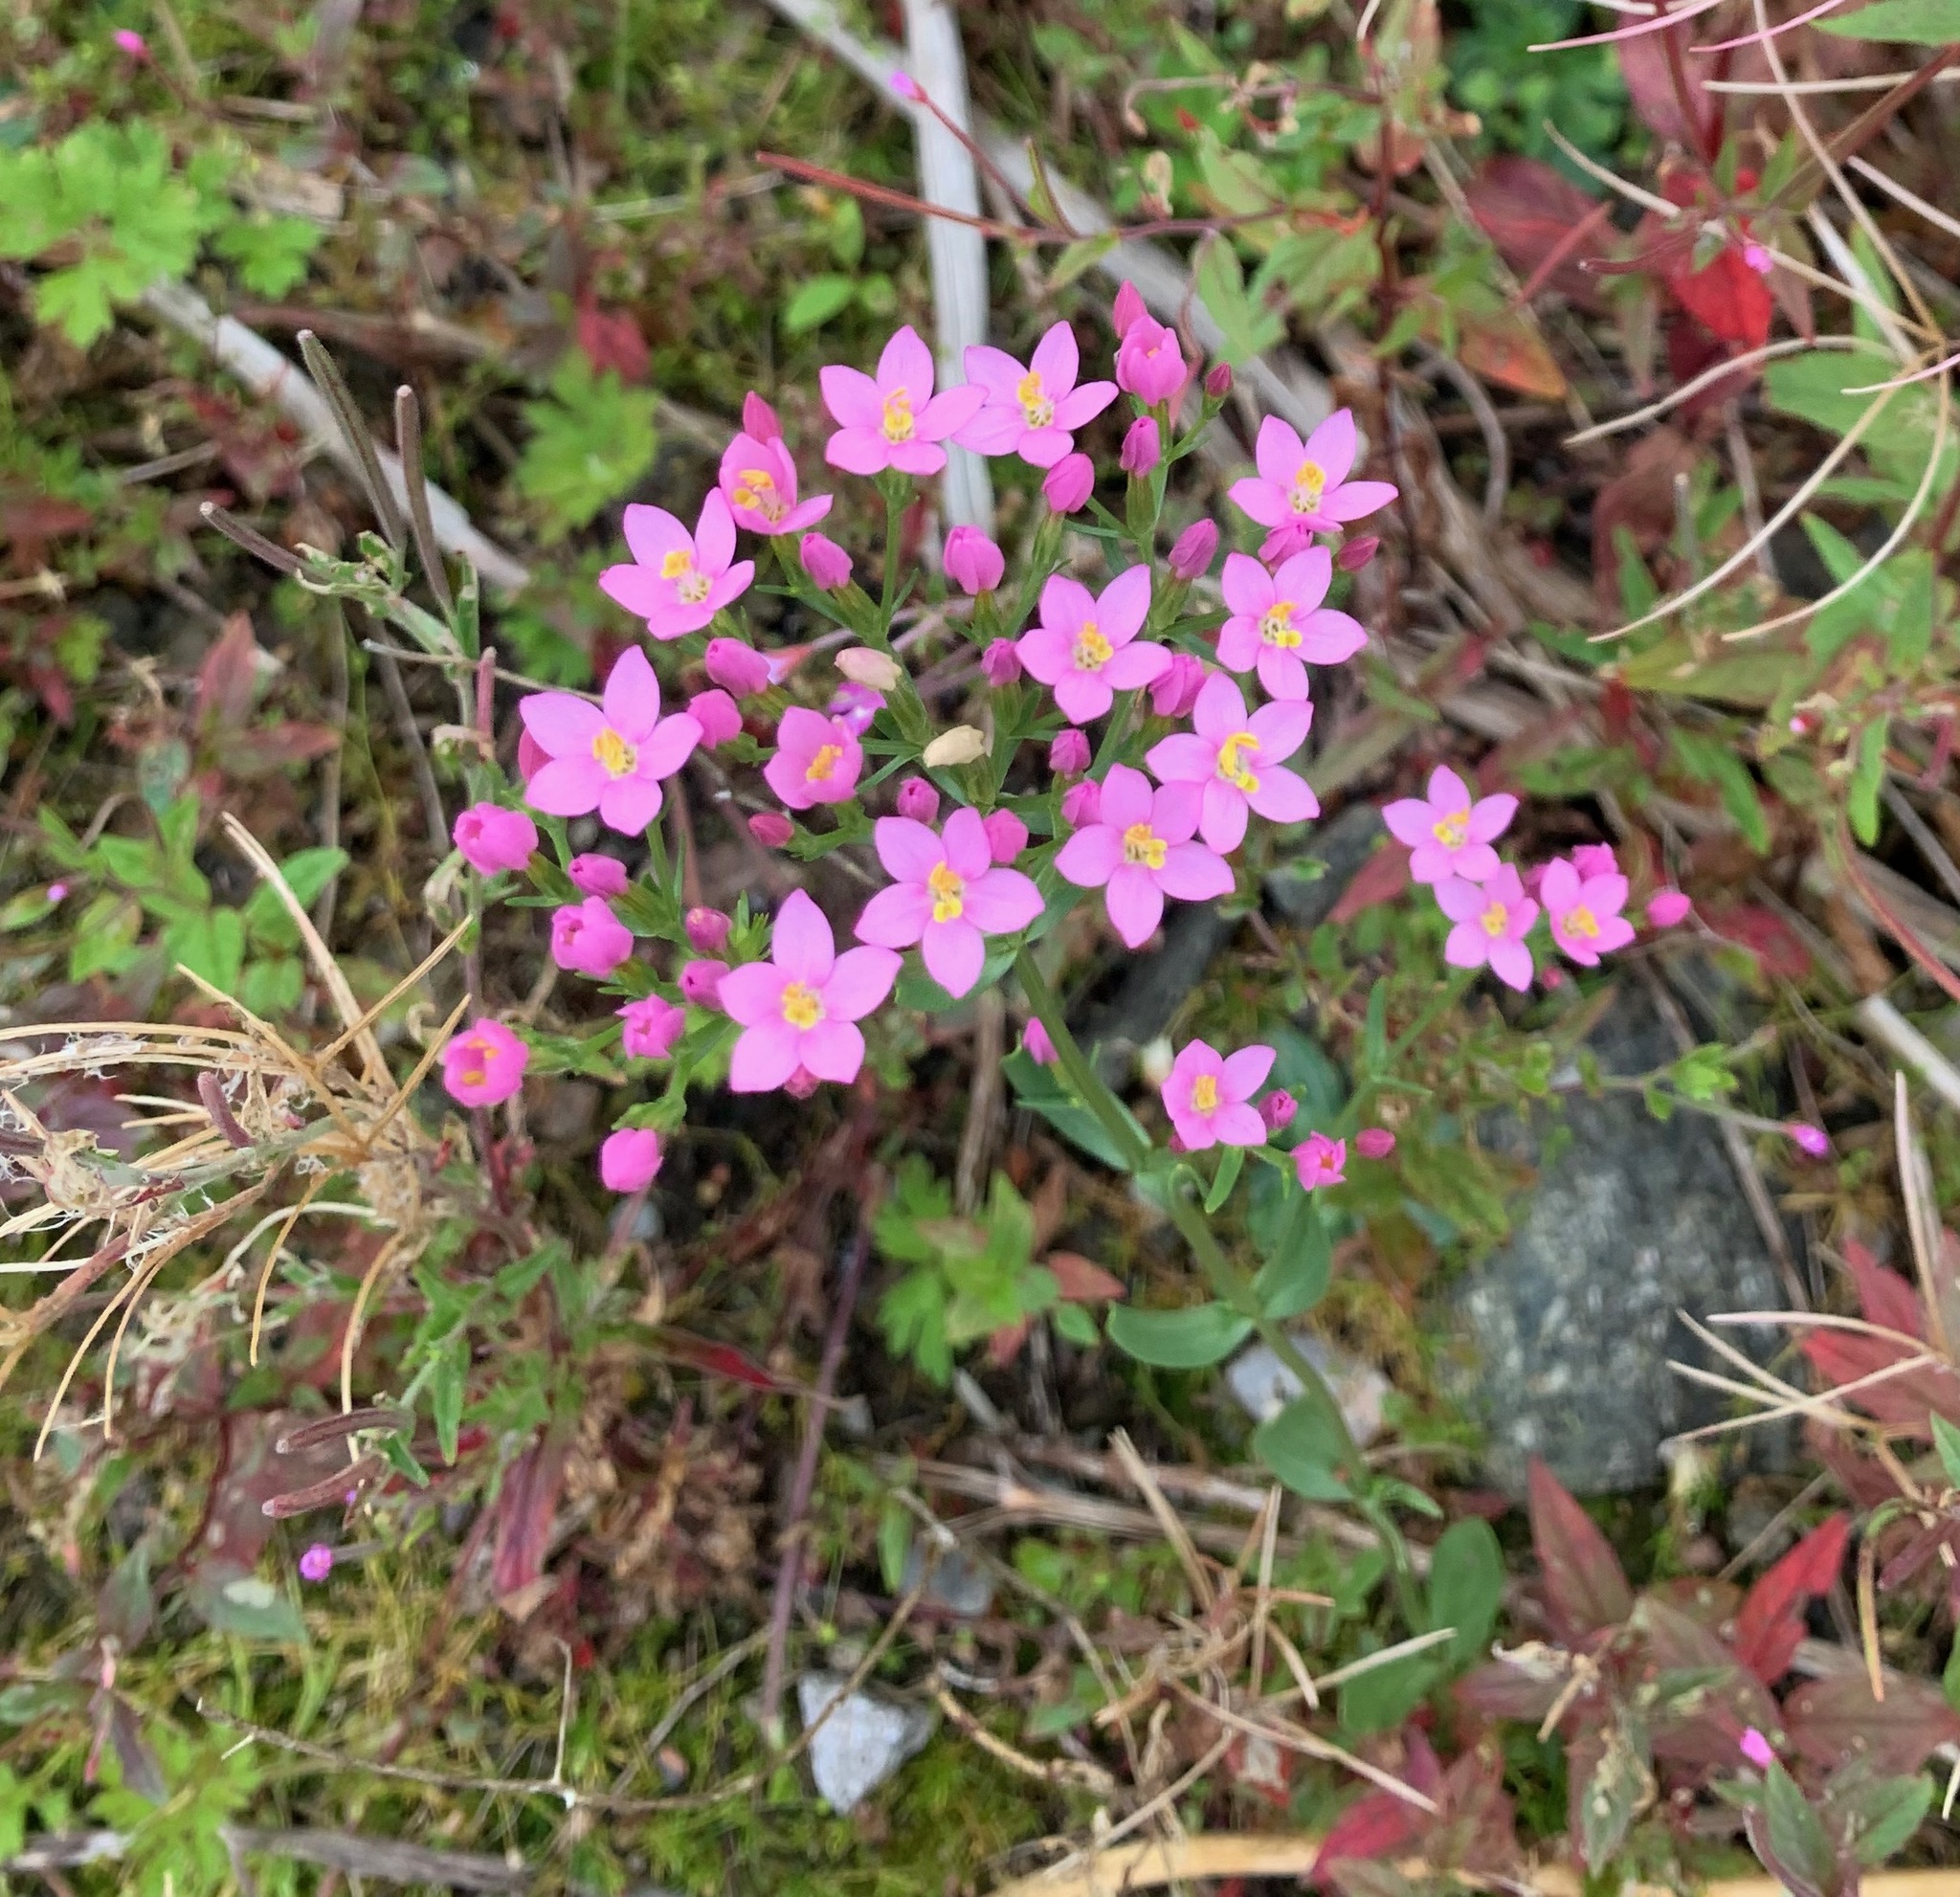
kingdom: Plantae
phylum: Tracheophyta
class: Magnoliopsida
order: Gentianales
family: Gentianaceae
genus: Centaurium
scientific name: Centaurium erythraea
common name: Common centaury
